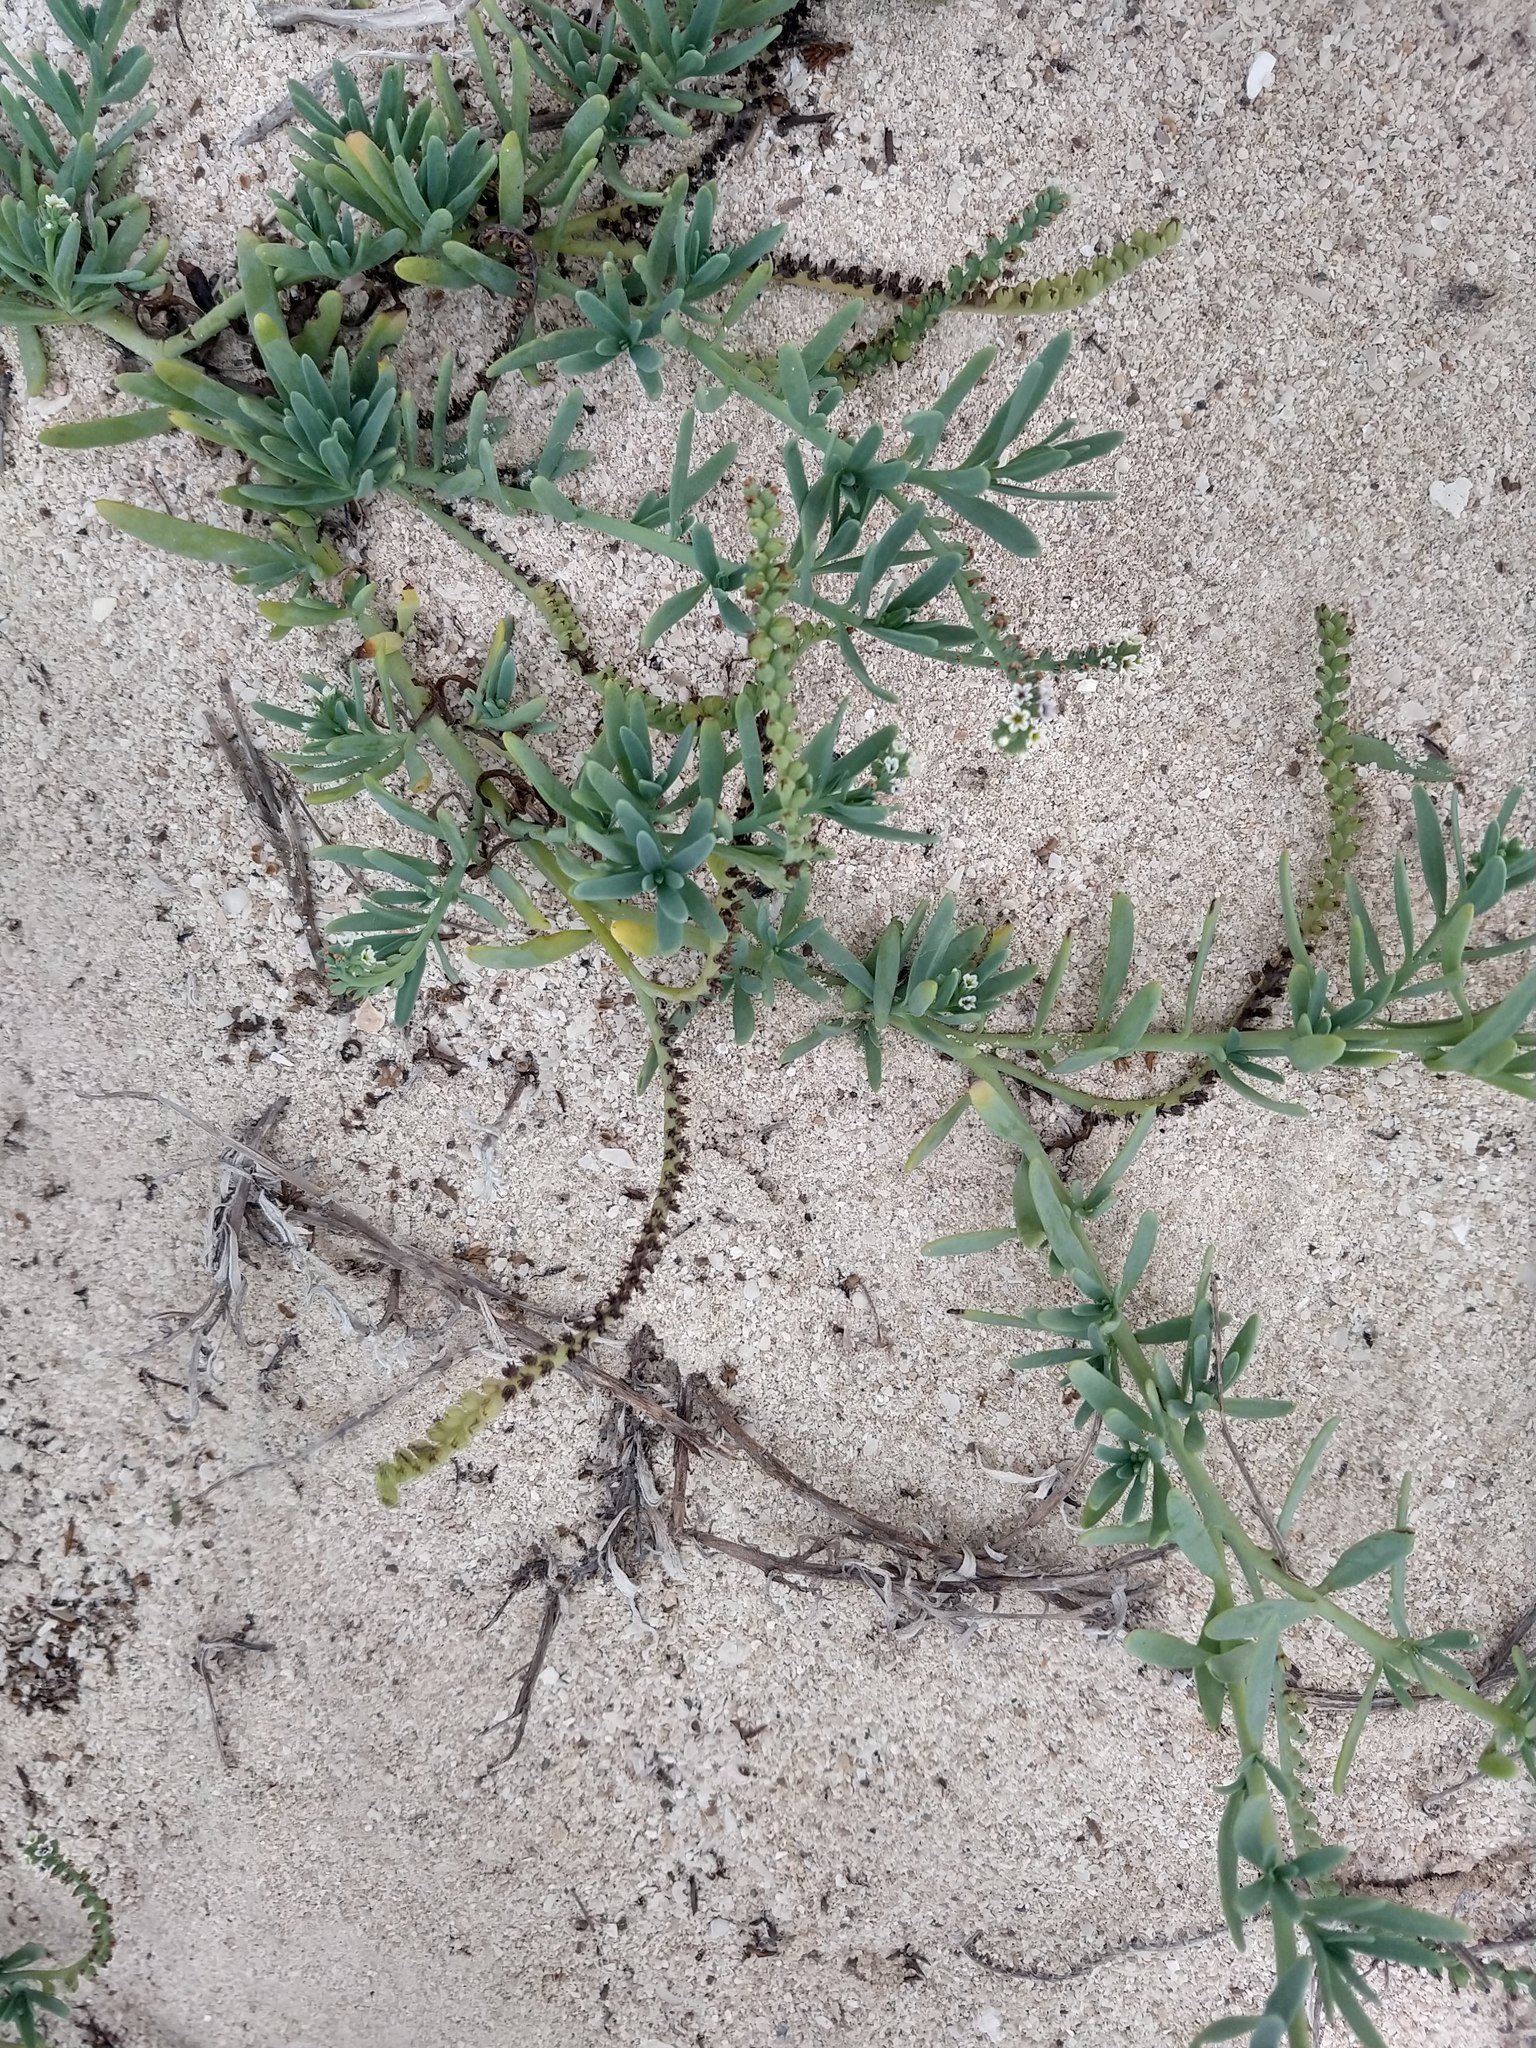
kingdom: Plantae
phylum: Tracheophyta
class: Magnoliopsida
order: Boraginales
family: Heliotropiaceae
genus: Heliotropium
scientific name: Heliotropium curassavicum
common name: Seaside heliotrope
